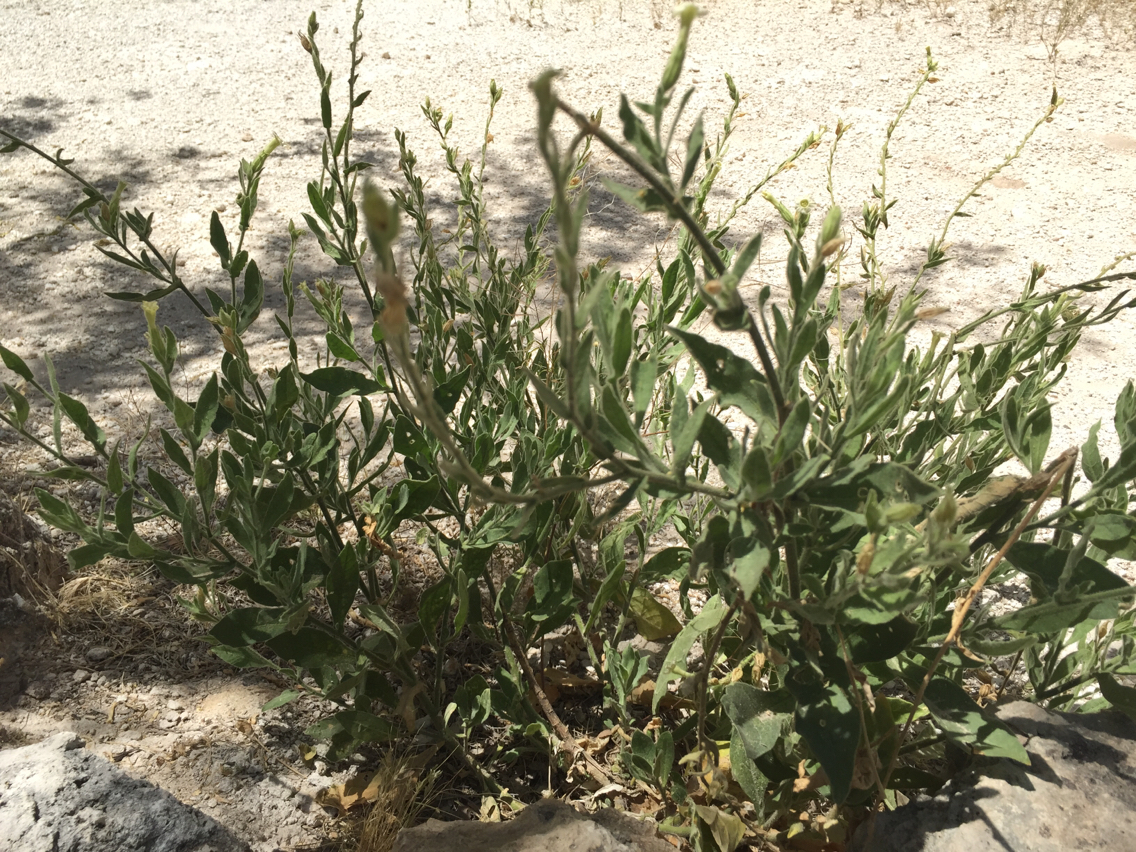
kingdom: Plantae
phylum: Tracheophyta
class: Magnoliopsida
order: Solanales
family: Solanaceae
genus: Nicotiana
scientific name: Nicotiana obtusifolia
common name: Desert tobacco
